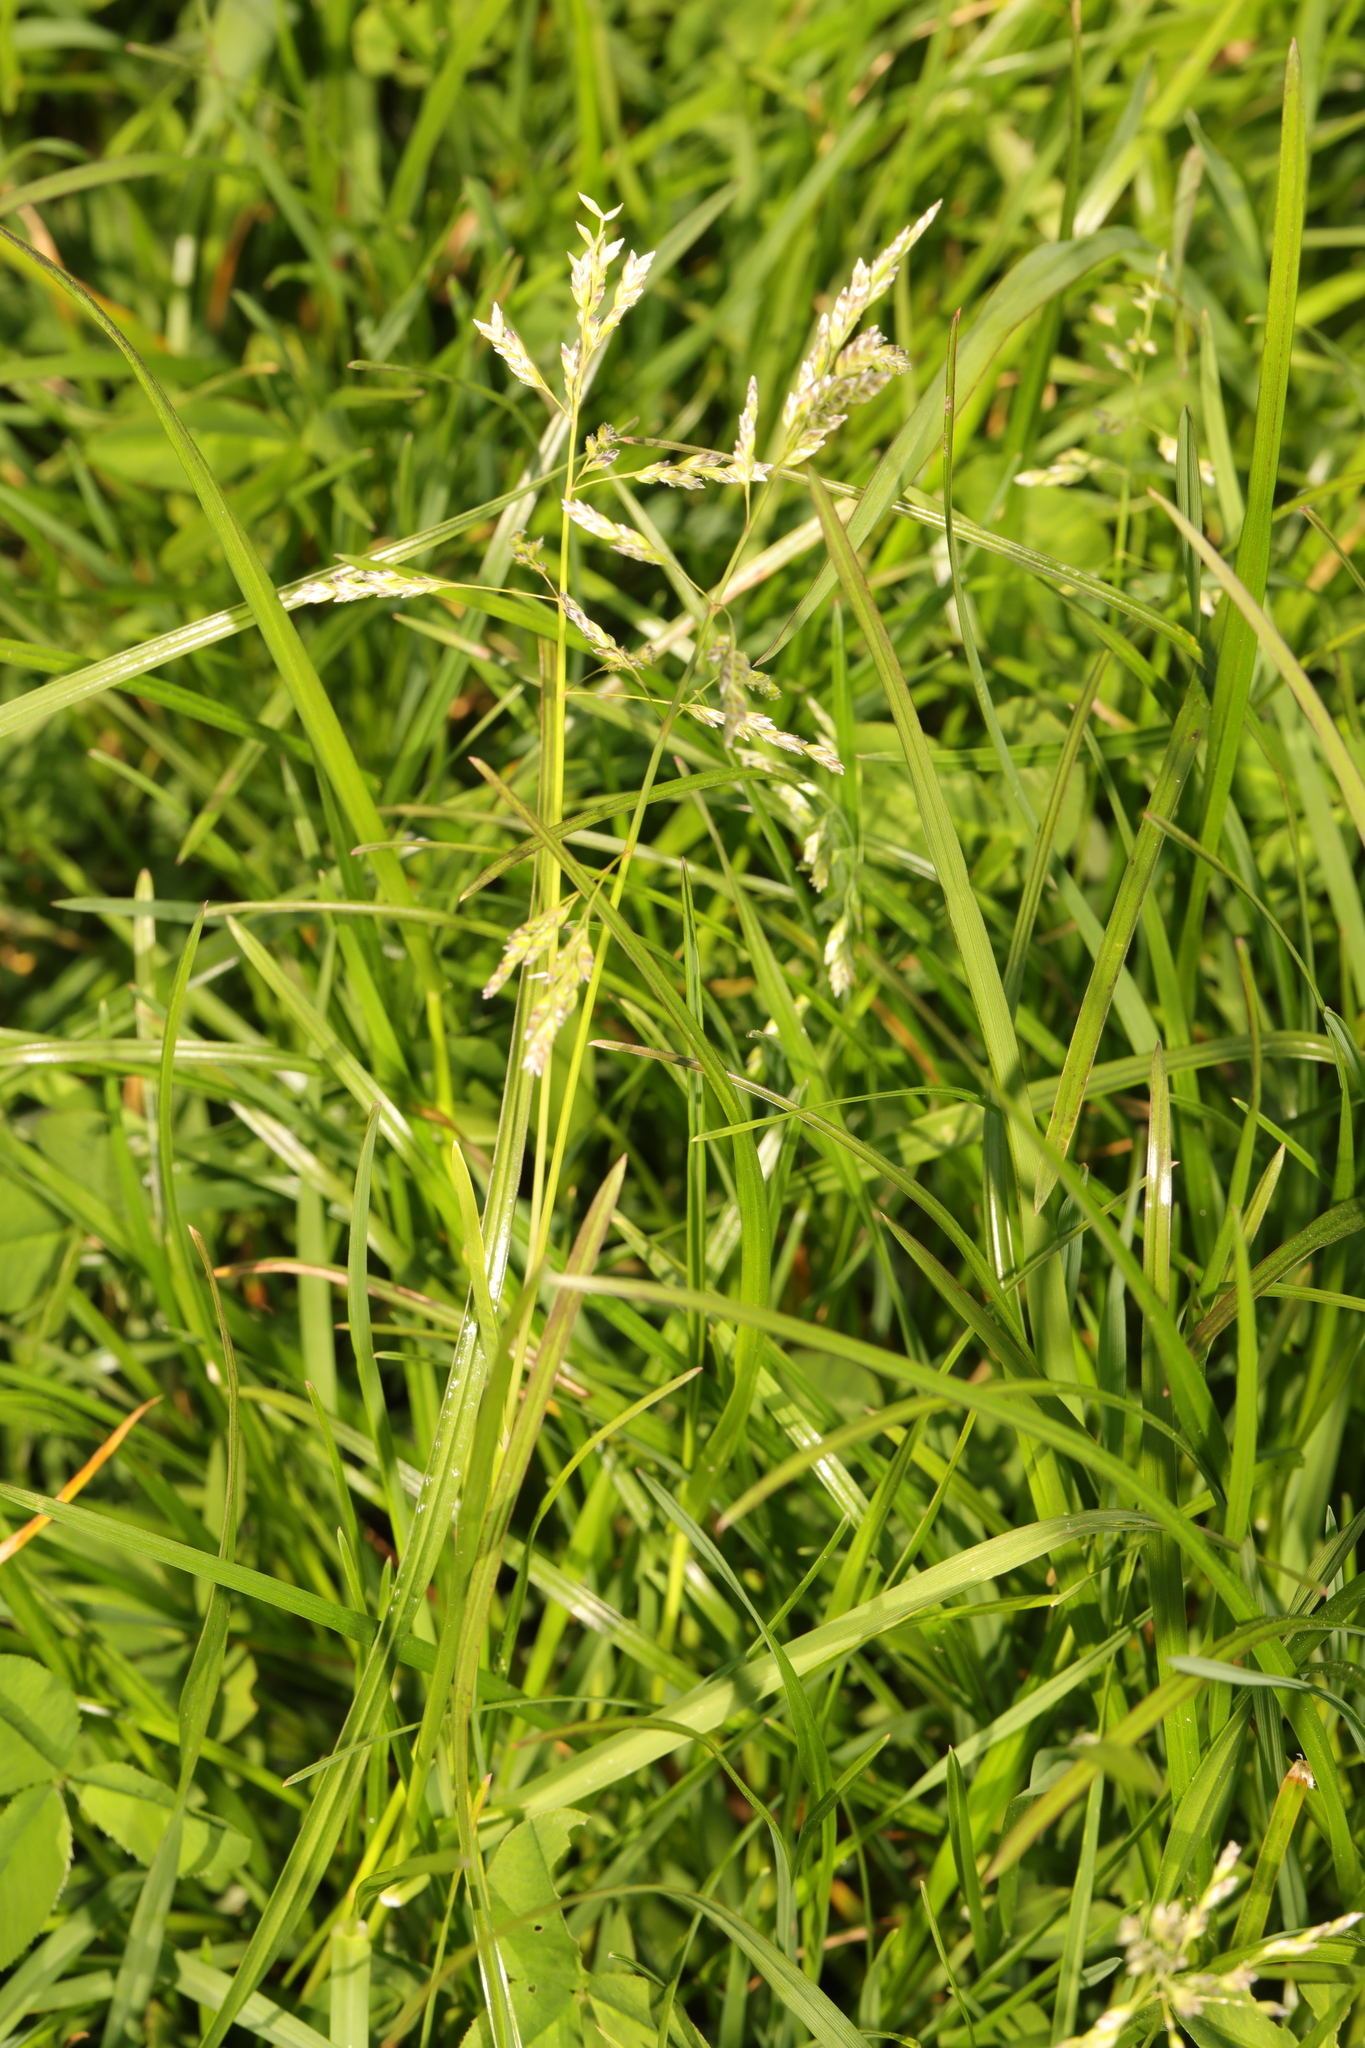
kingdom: Plantae
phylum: Tracheophyta
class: Liliopsida
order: Poales
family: Poaceae
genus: Poa
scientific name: Poa annua
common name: Annual bluegrass
